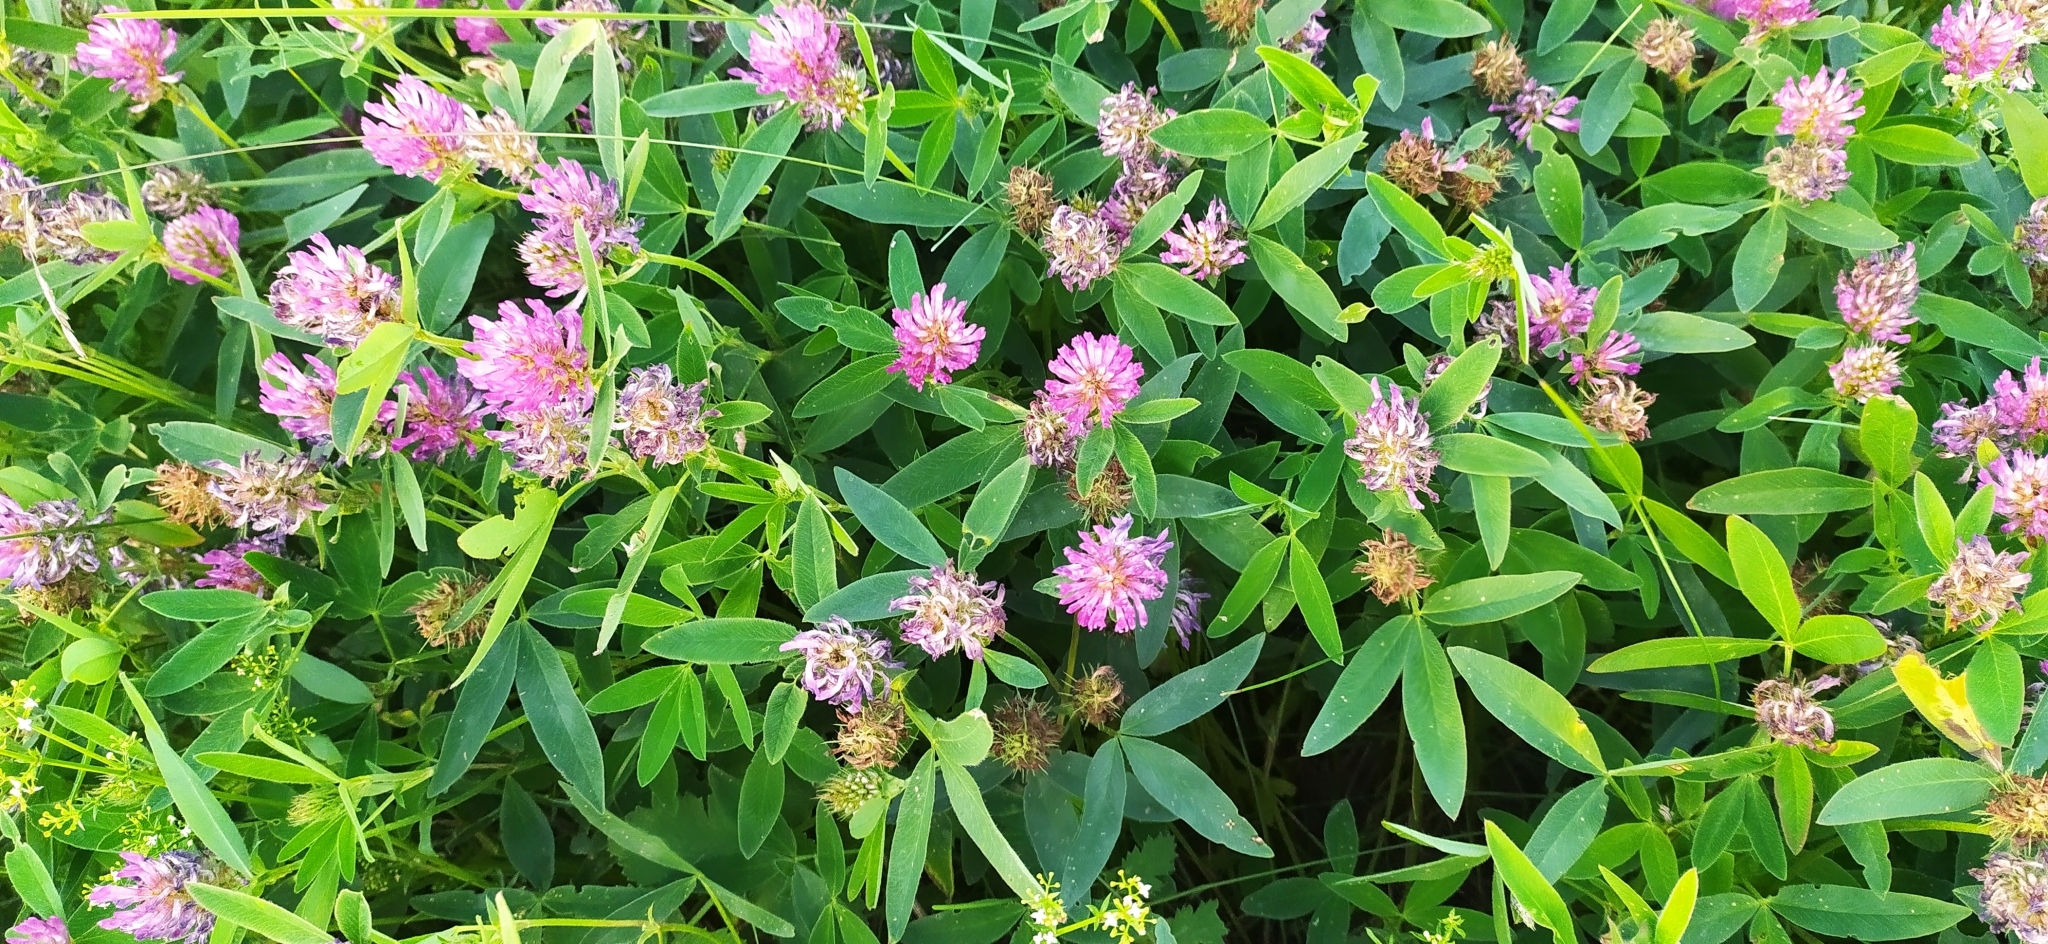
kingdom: Plantae
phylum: Tracheophyta
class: Magnoliopsida
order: Fabales
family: Fabaceae
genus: Trifolium
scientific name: Trifolium medium
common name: Zigzag clover
